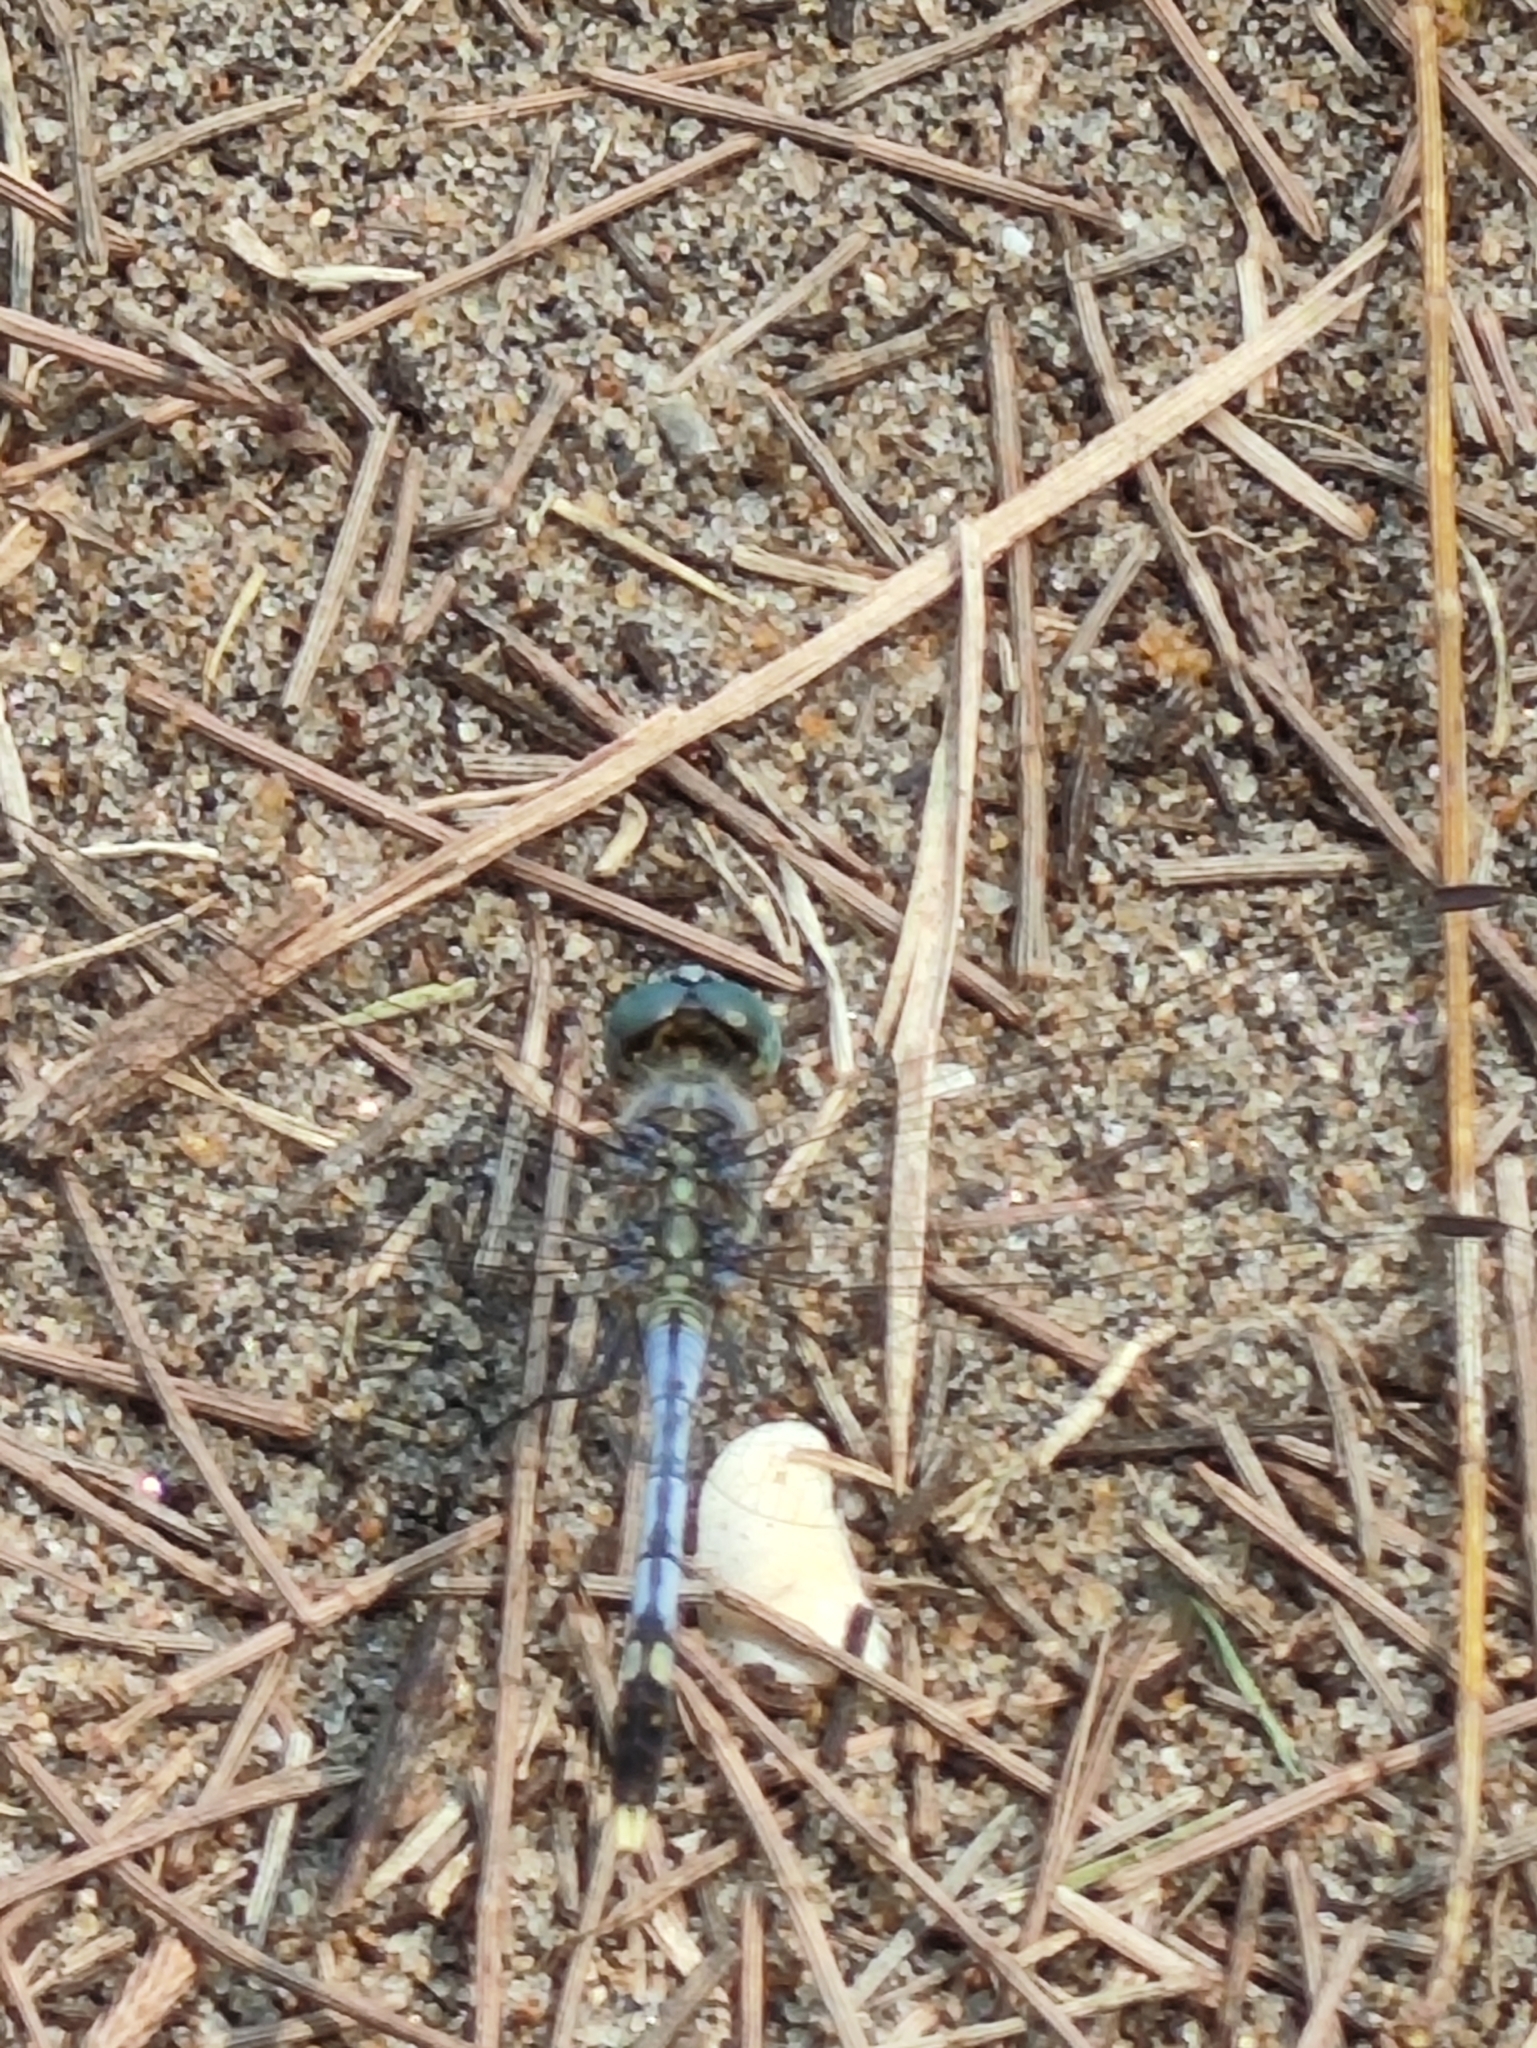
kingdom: Animalia
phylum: Arthropoda
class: Insecta
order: Odonata
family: Libellulidae
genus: Diplacodes
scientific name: Diplacodes trivialis
